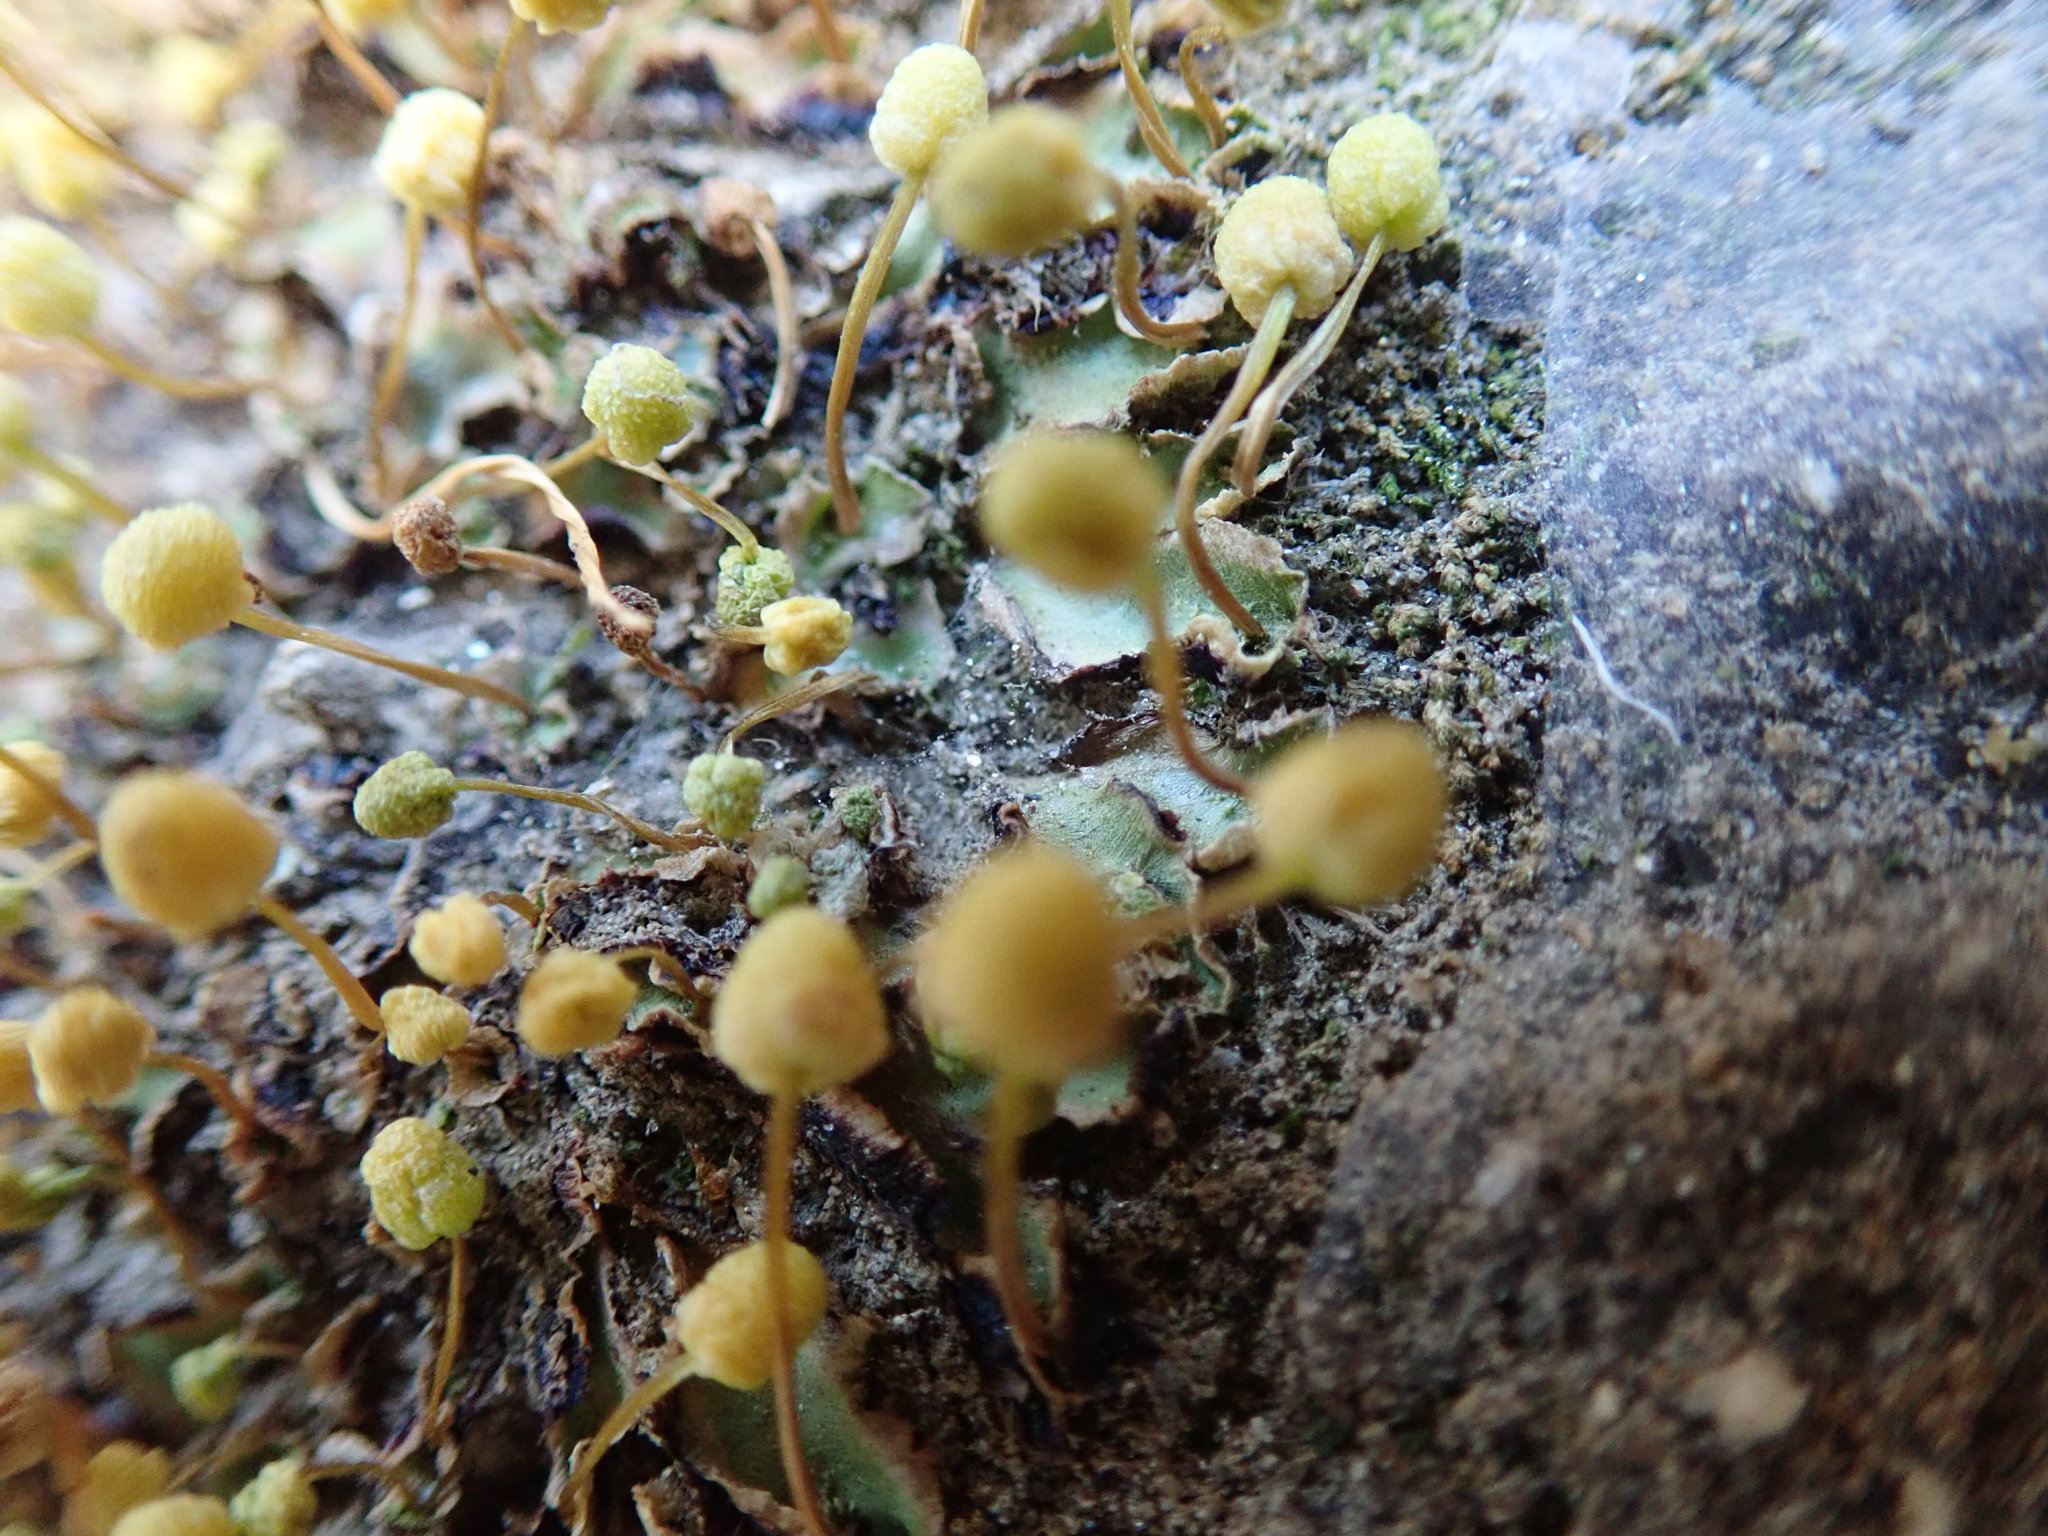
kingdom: Plantae
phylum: Marchantiophyta
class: Marchantiopsida
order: Marchantiales
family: Aytoniaceae
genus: Asterella
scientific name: Asterella palmeri
